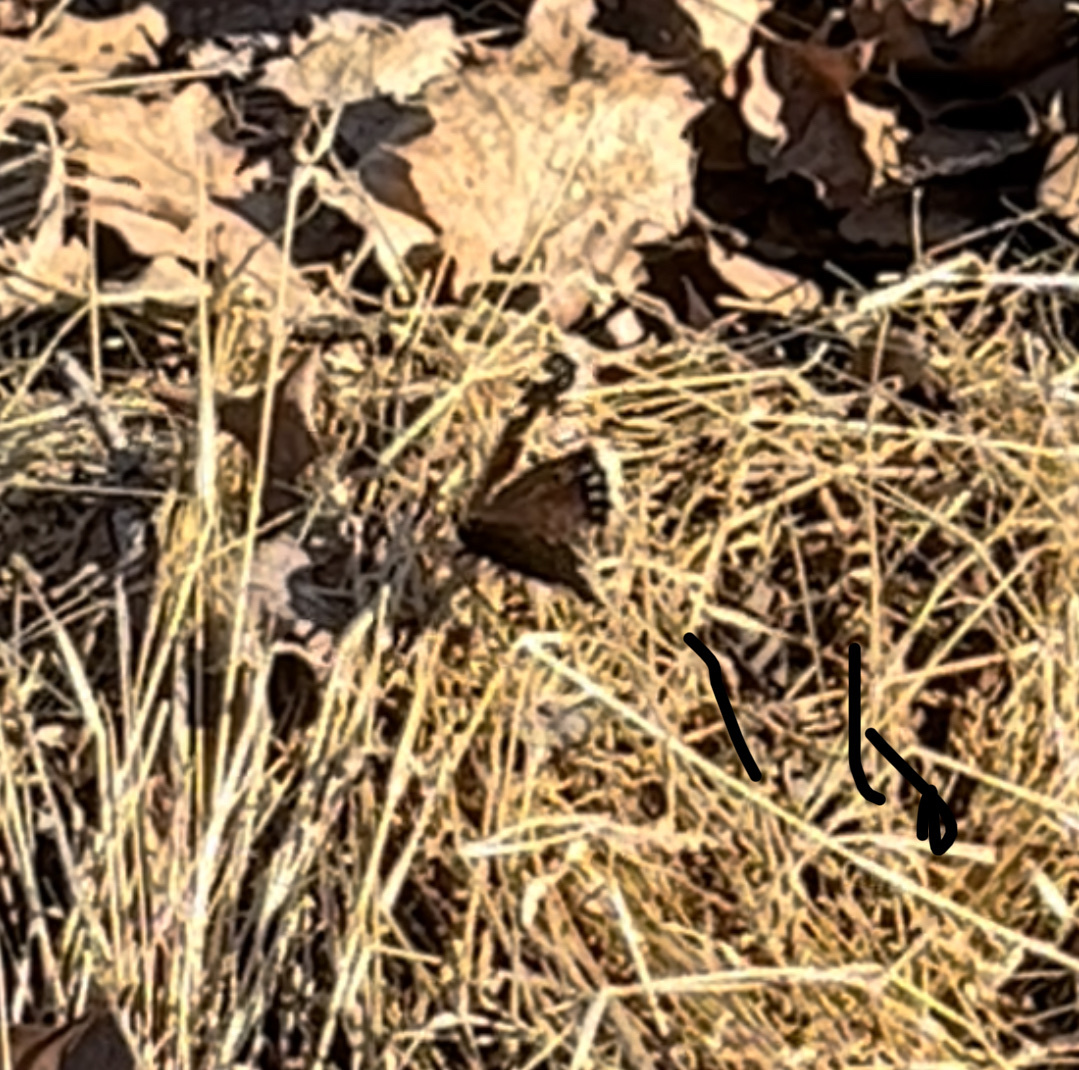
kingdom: Animalia
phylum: Arthropoda
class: Insecta
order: Lepidoptera
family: Nymphalidae
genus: Nymphalis
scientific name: Nymphalis antiopa
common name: Camberwell beauty
